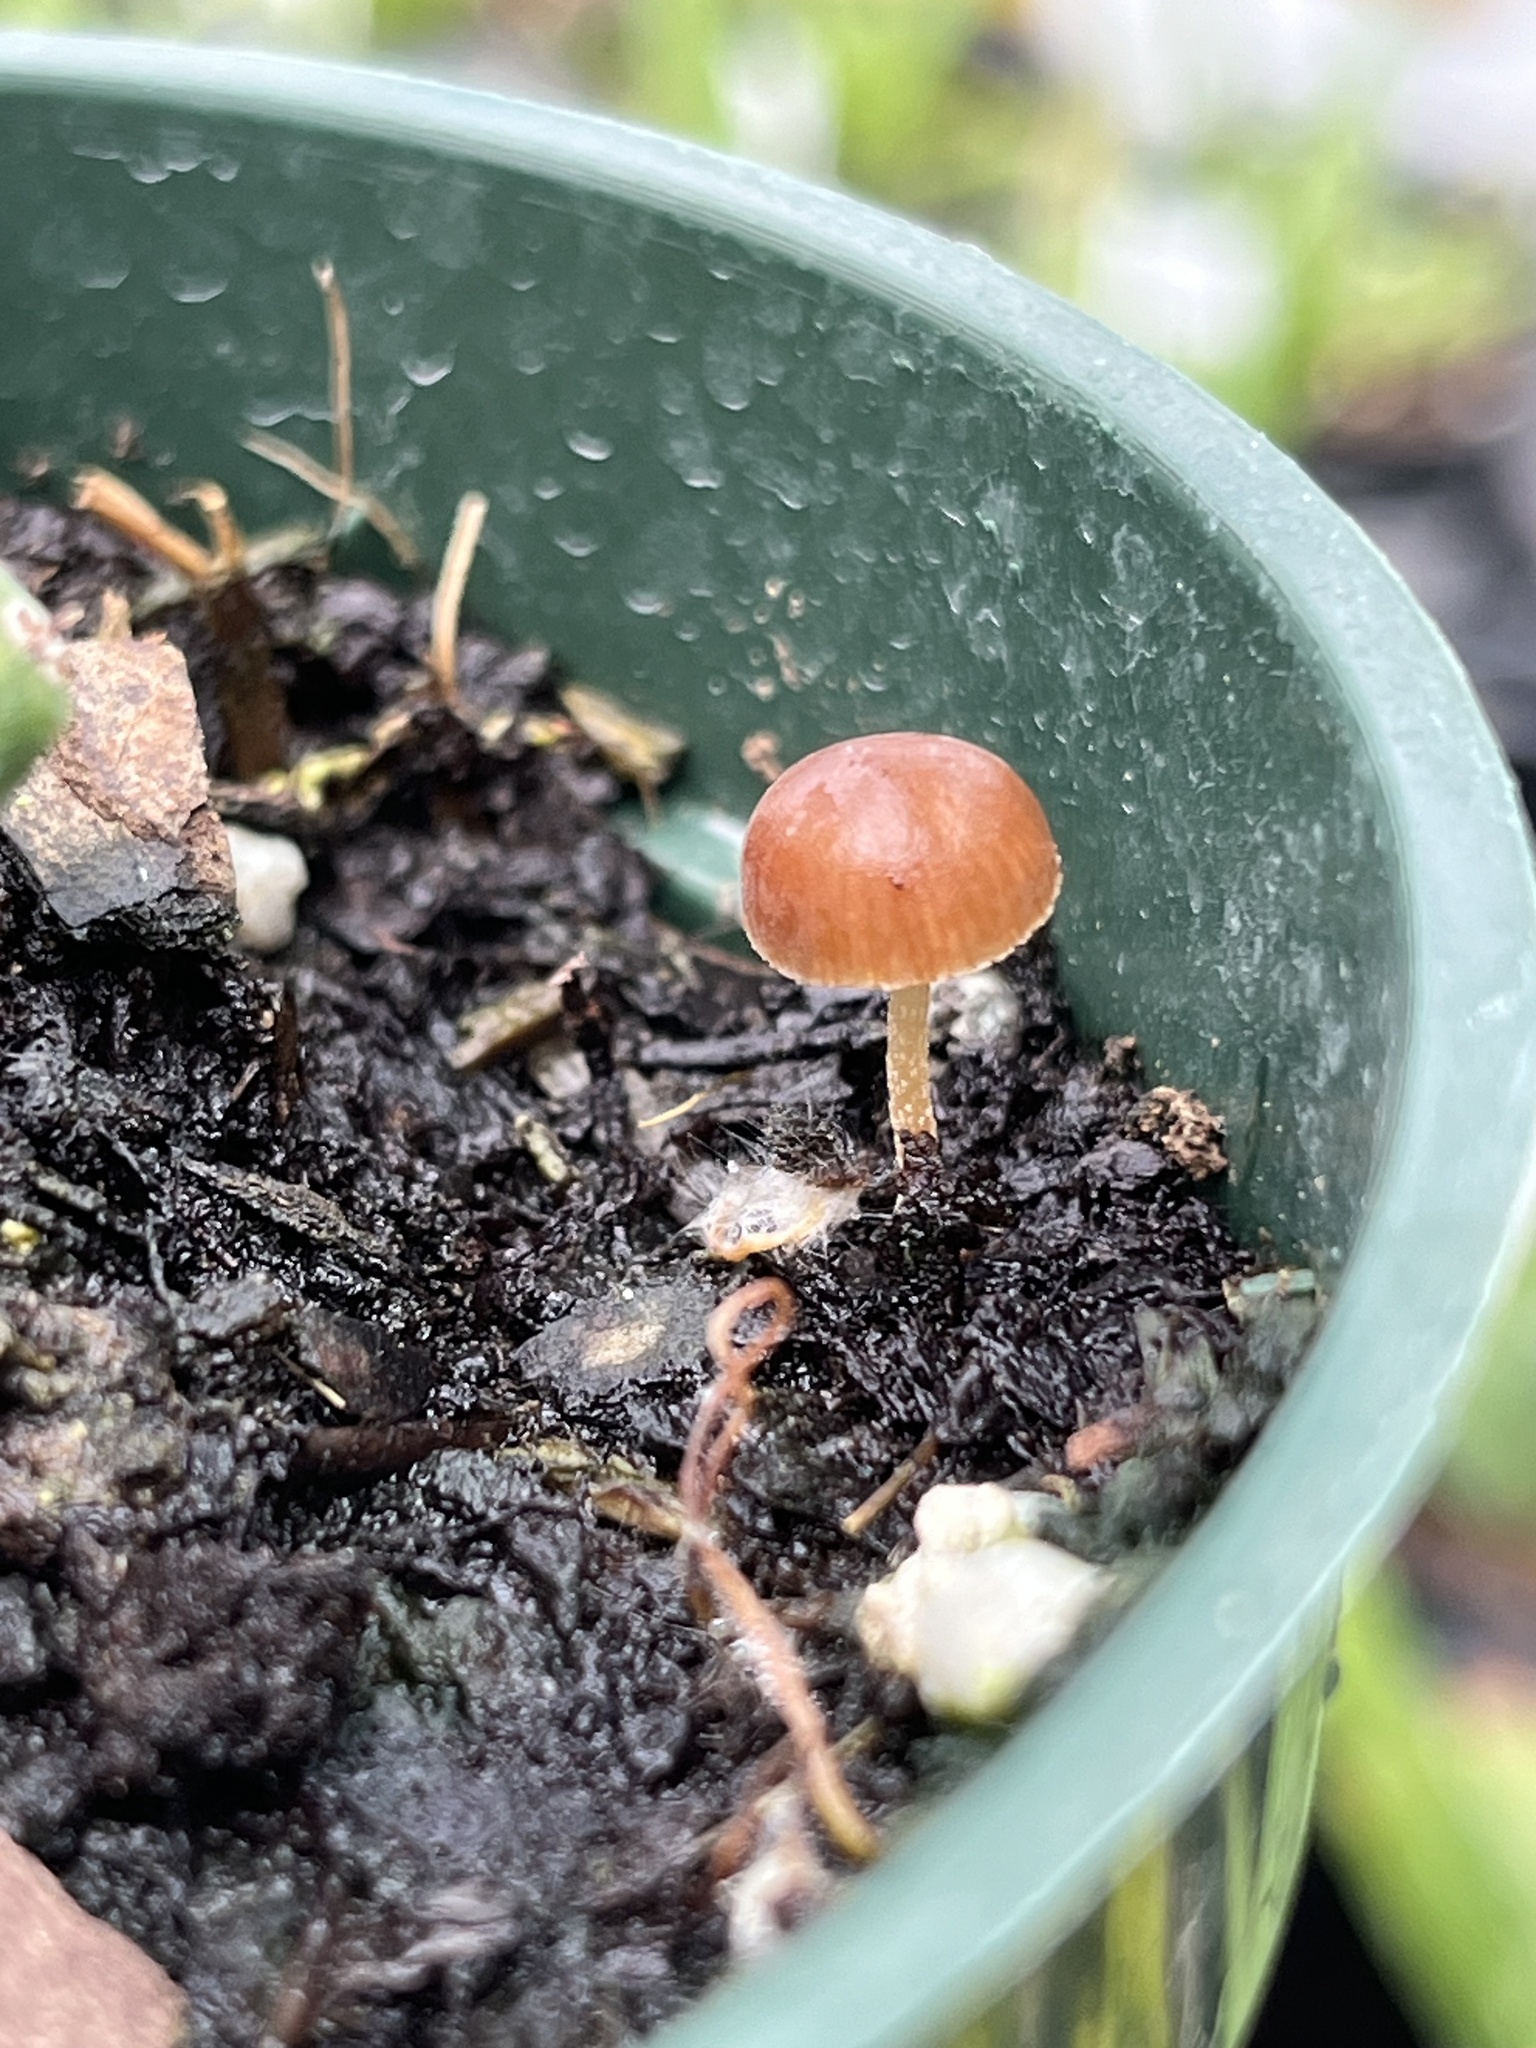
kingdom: Fungi
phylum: Basidiomycota
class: Agaricomycetes
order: Agaricales
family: Tubariaceae
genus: Tubaria
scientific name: Tubaria furfuracea
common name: Scurfy twiglet
